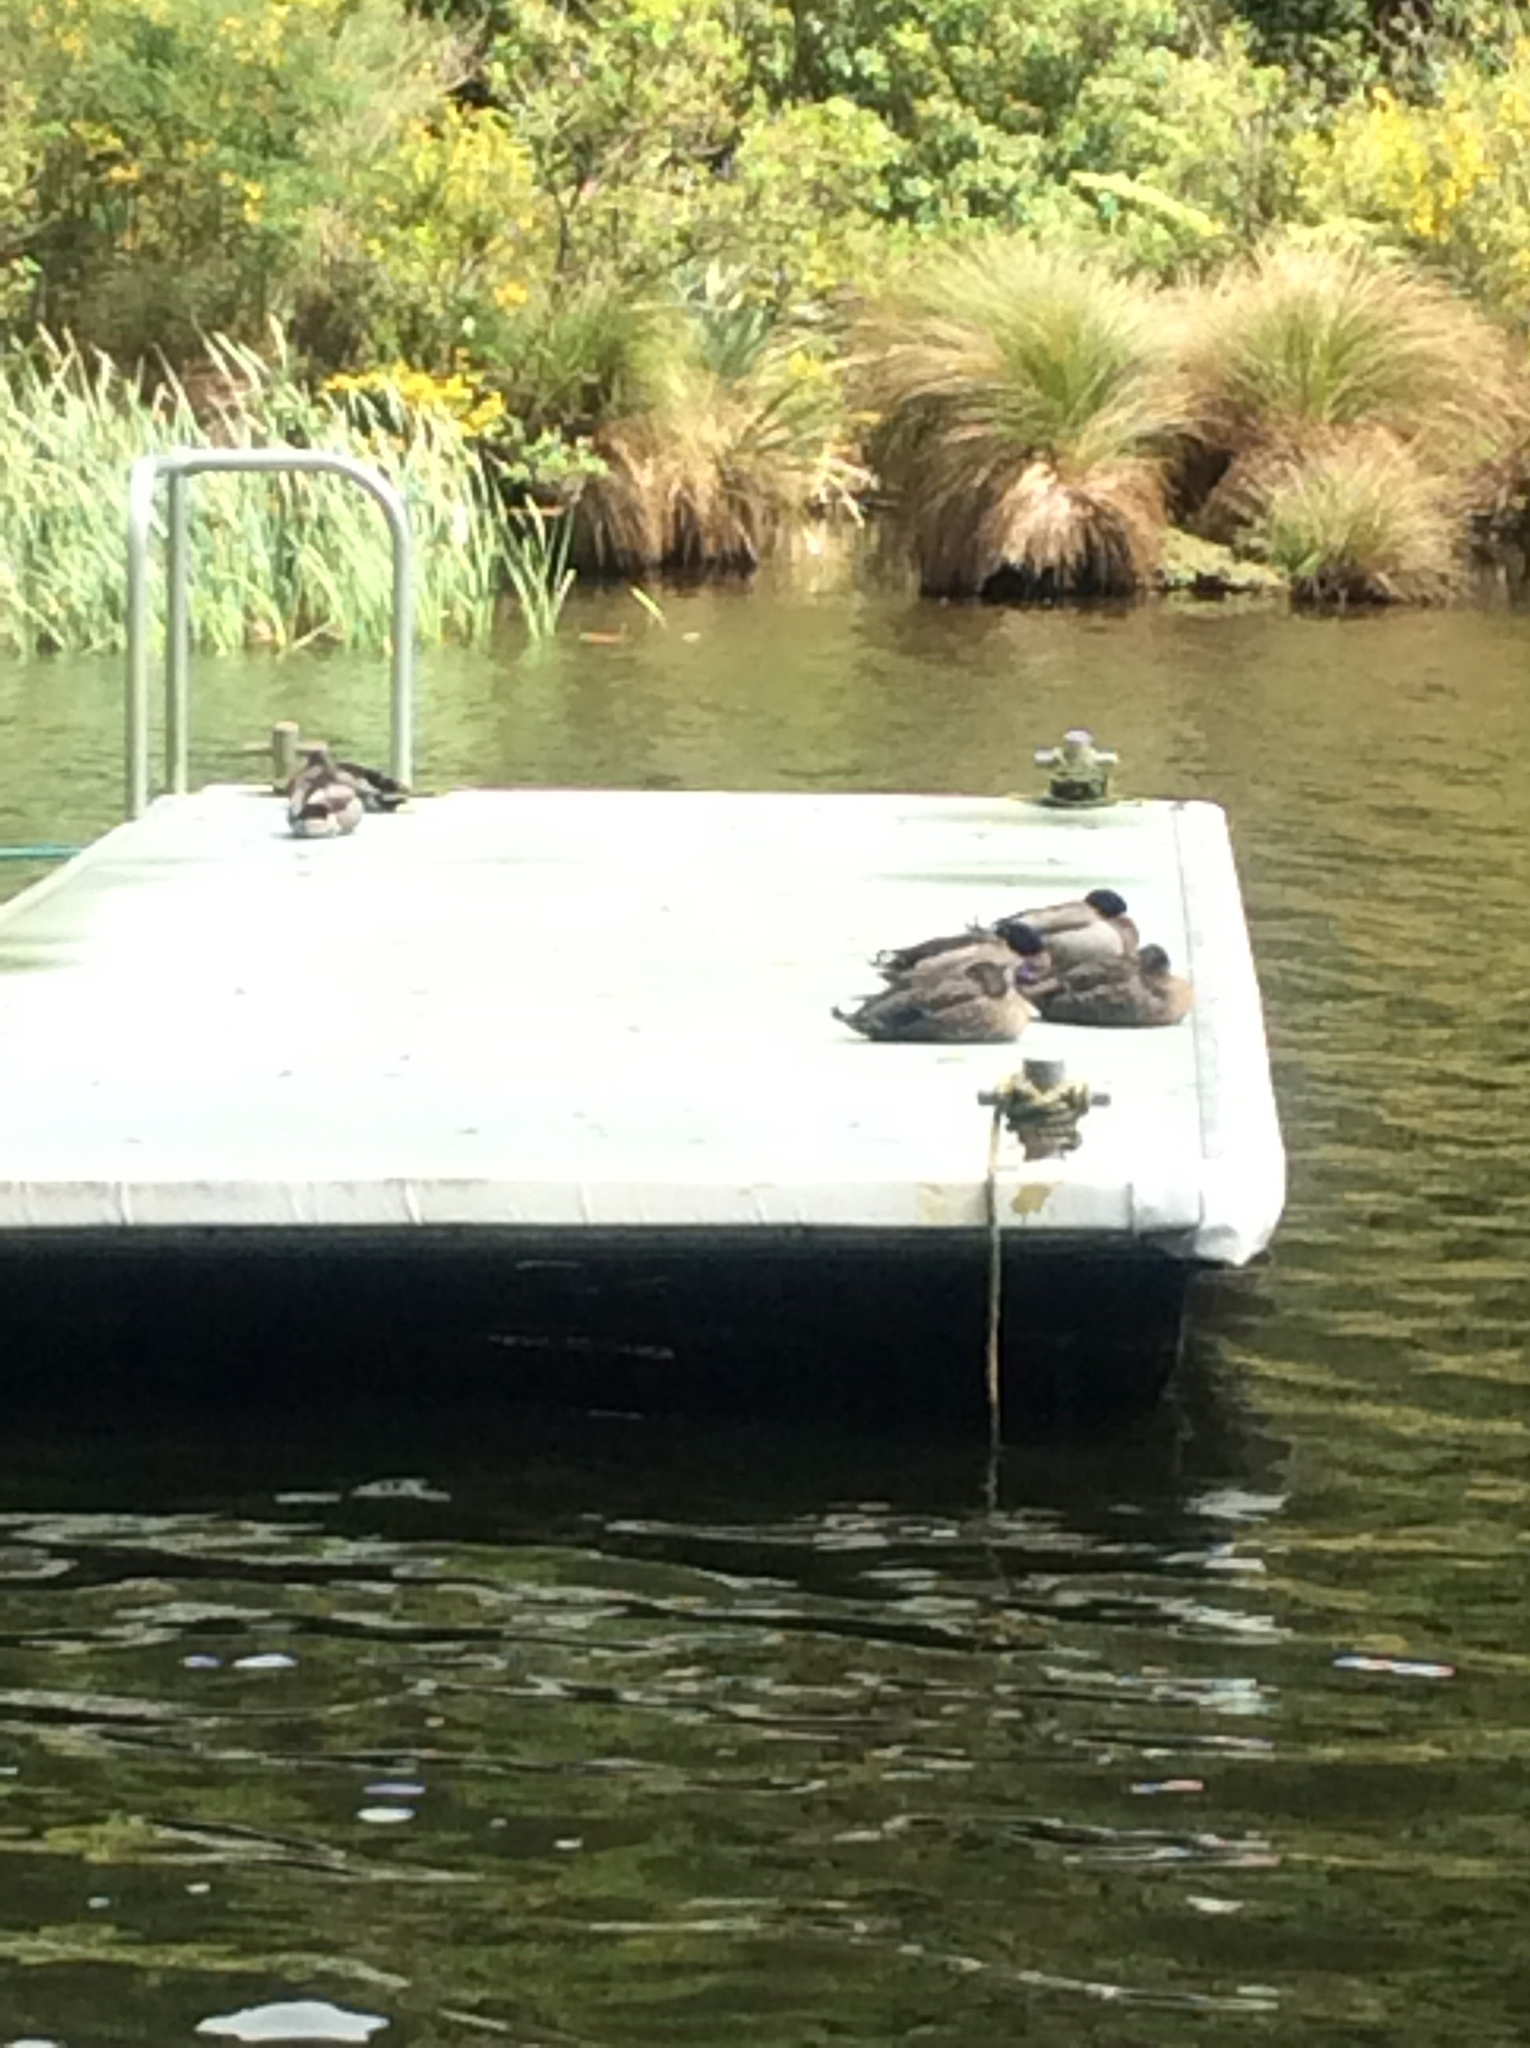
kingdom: Animalia
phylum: Chordata
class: Aves
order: Anseriformes
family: Anatidae
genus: Anas
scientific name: Anas platyrhynchos
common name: Mallard
